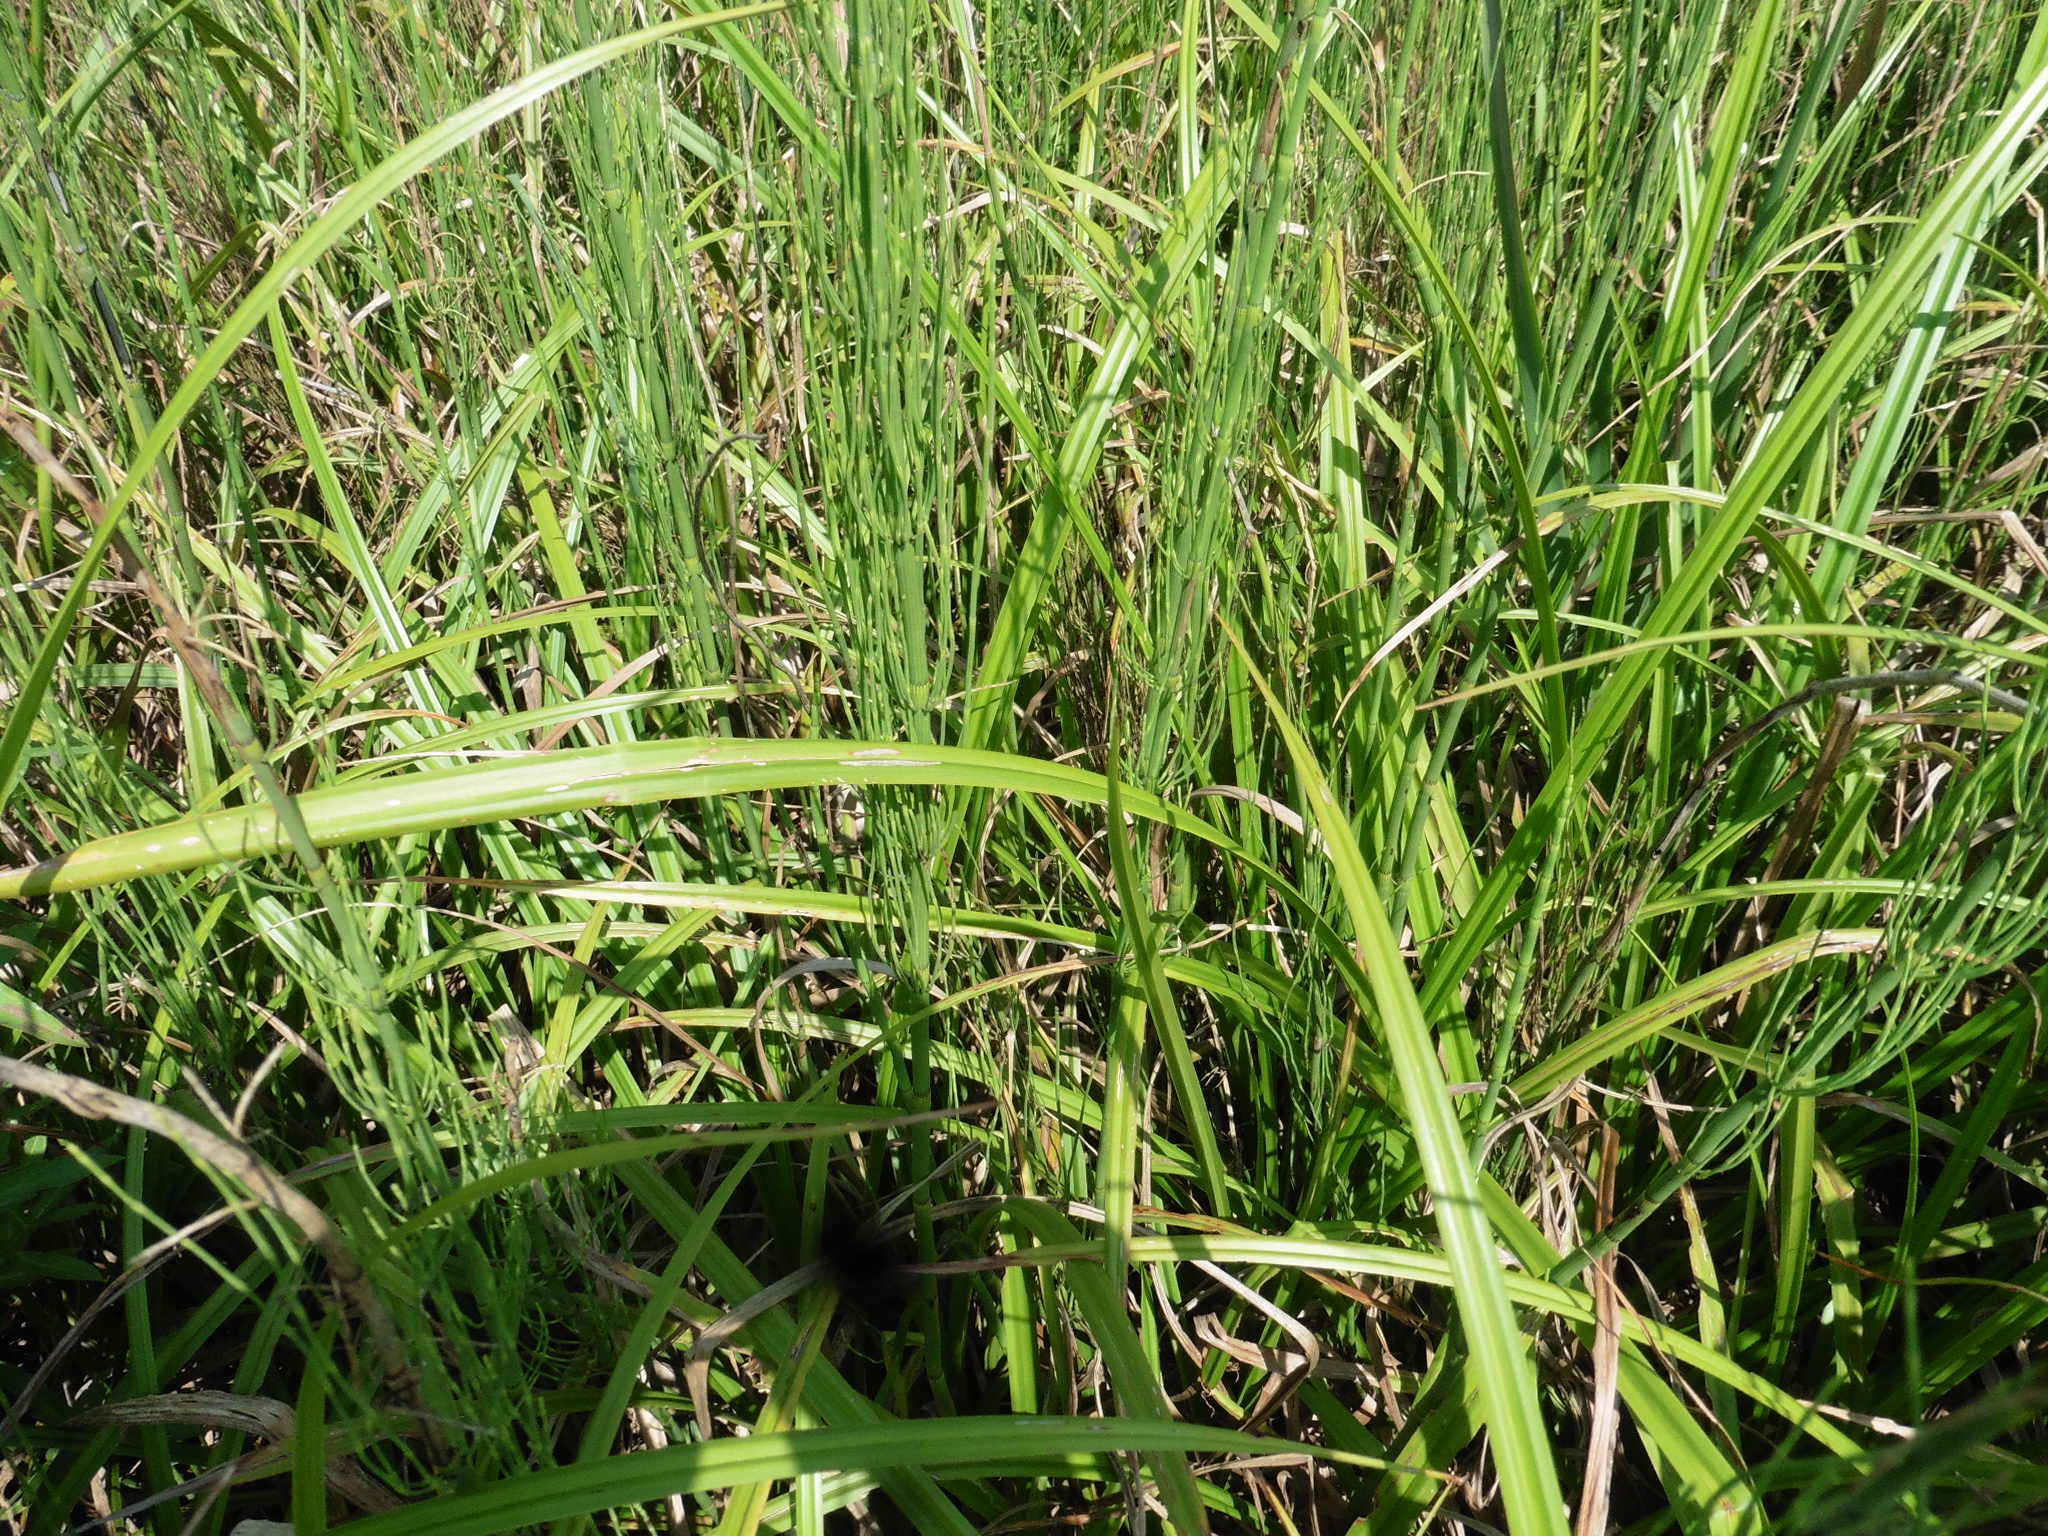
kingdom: Plantae
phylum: Tracheophyta
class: Polypodiopsida
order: Equisetales
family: Equisetaceae
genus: Equisetum
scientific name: Equisetum fluviatile
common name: Water horsetail
